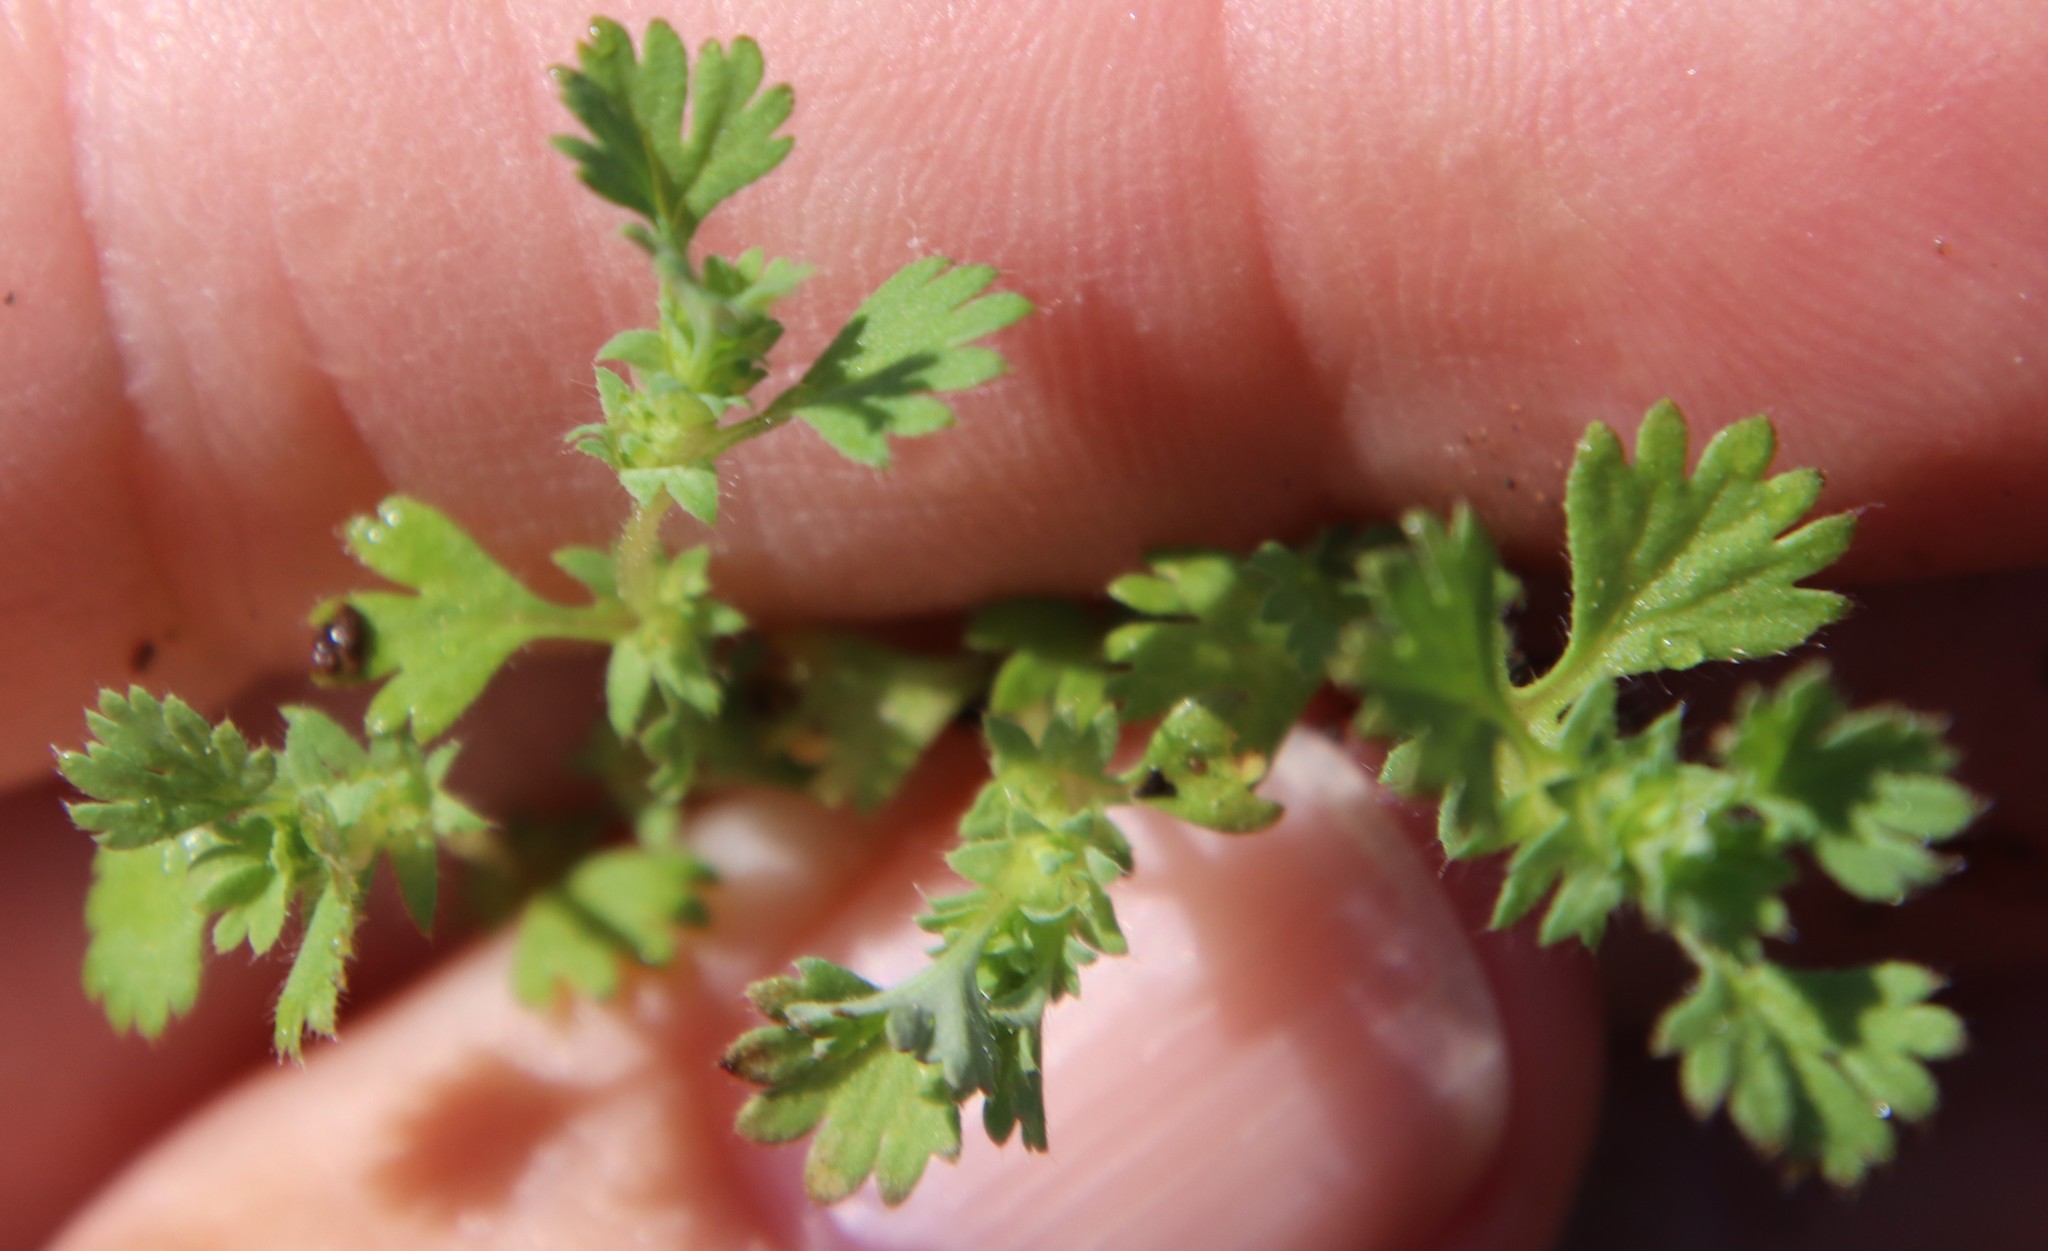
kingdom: Plantae
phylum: Tracheophyta
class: Magnoliopsida
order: Rosales
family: Rosaceae
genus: Aphanes
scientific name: Aphanes arvensis
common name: Parsley-piert
